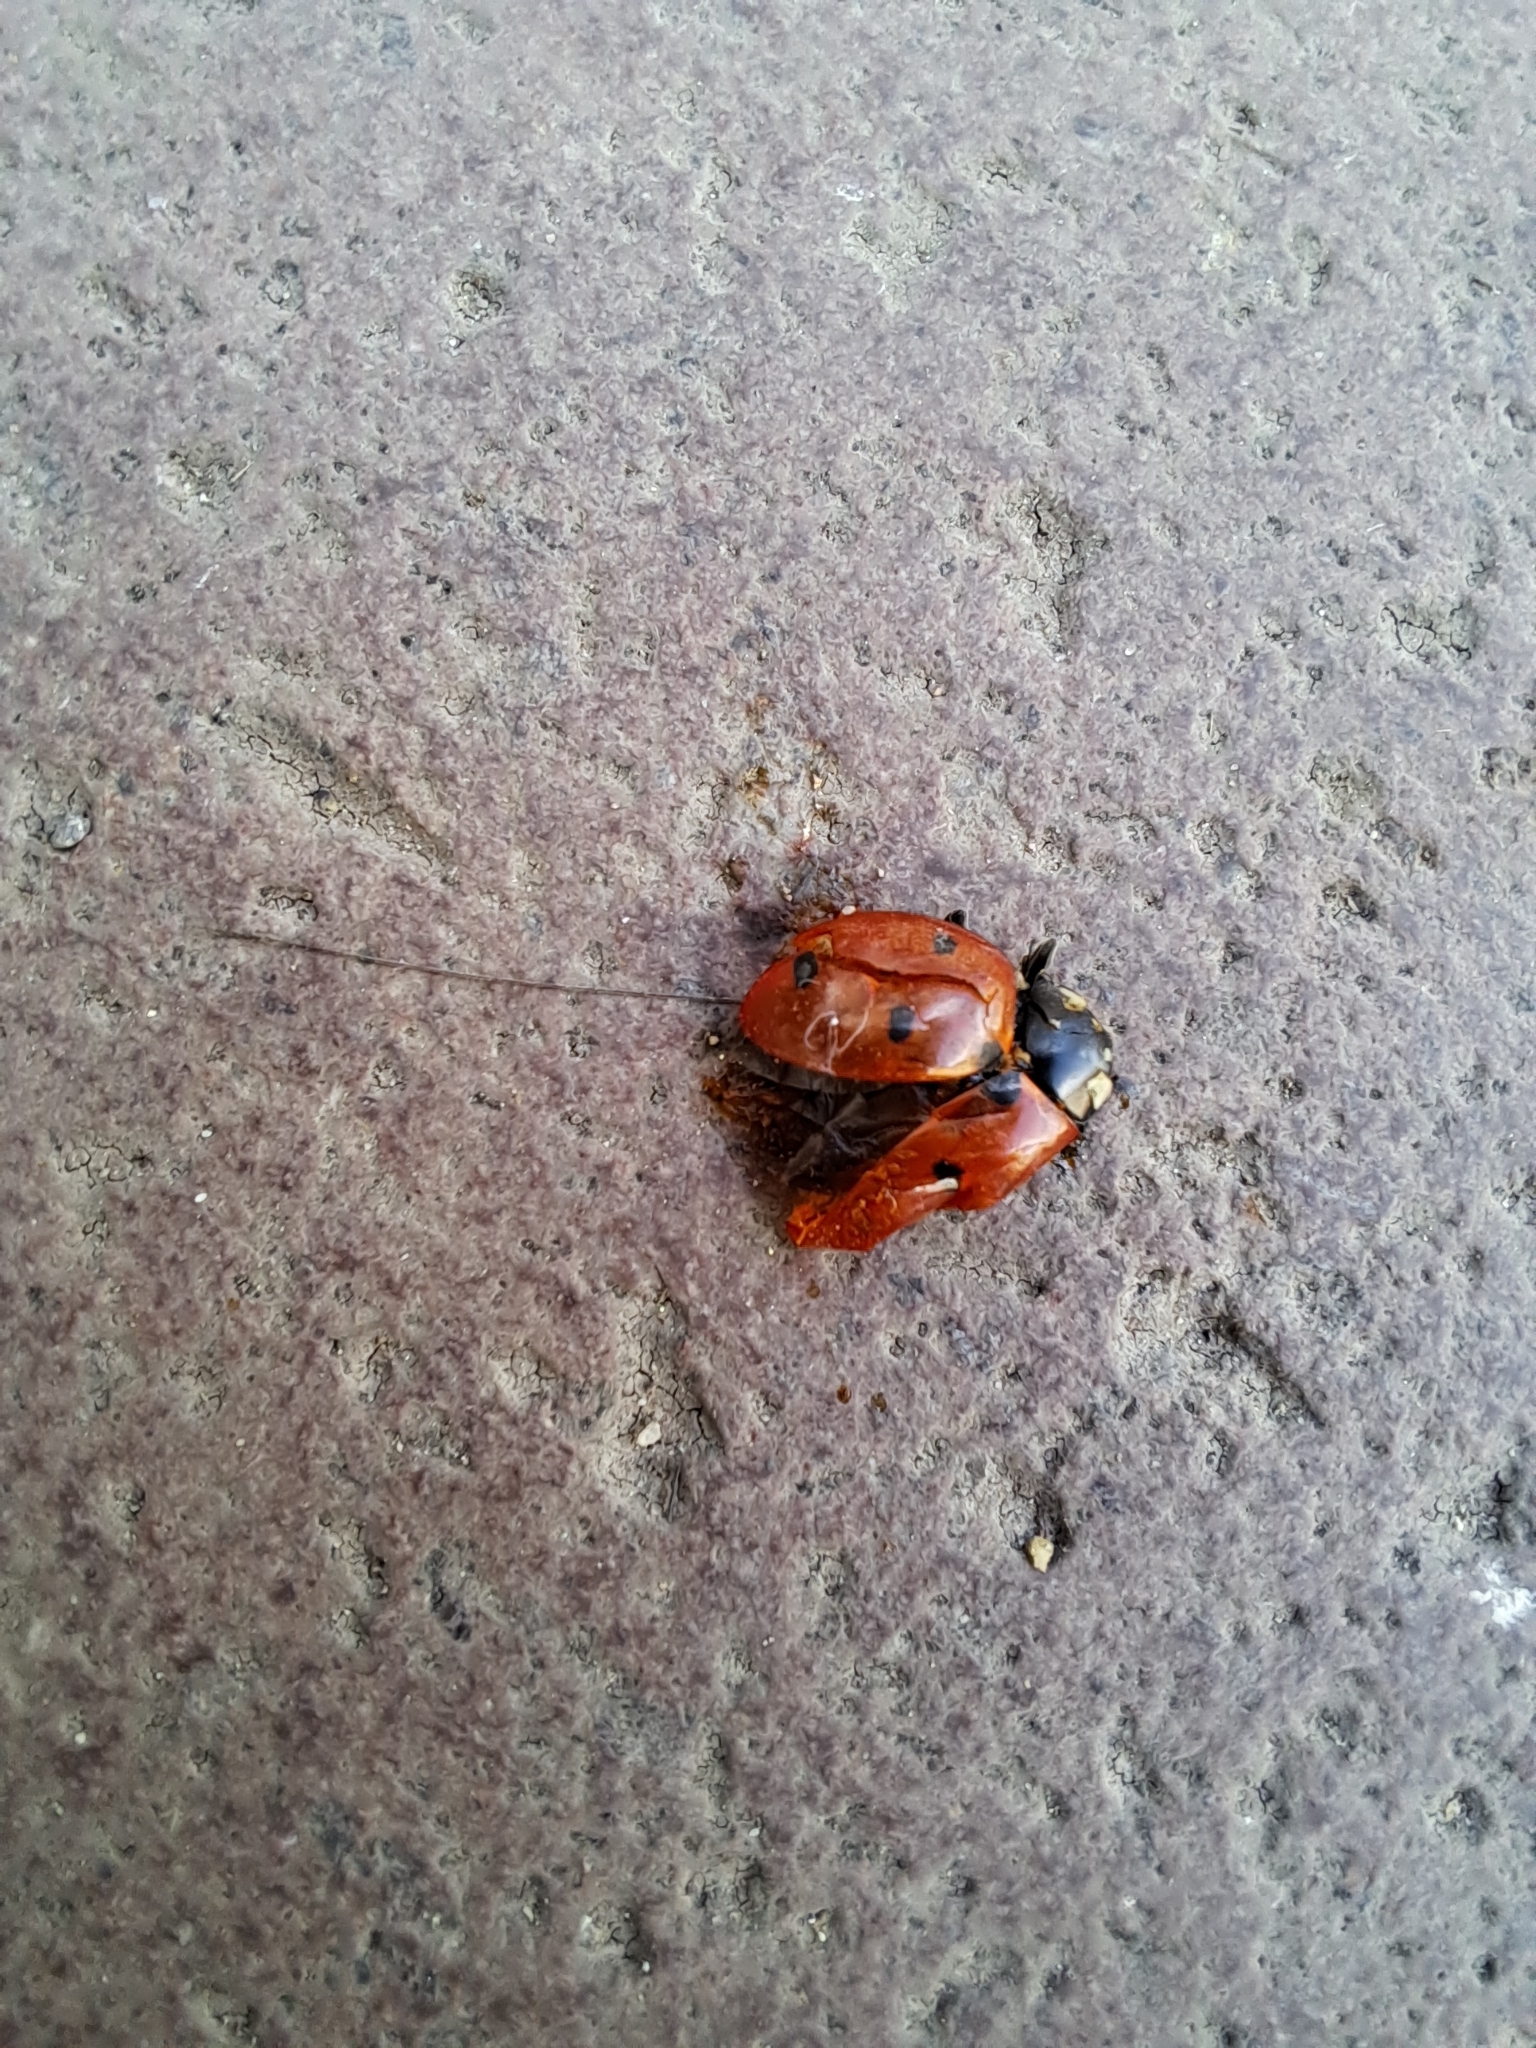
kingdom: Animalia
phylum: Arthropoda
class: Insecta
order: Coleoptera
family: Coccinellidae
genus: Coccinella
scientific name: Coccinella septempunctata
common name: Sevenspotted lady beetle
